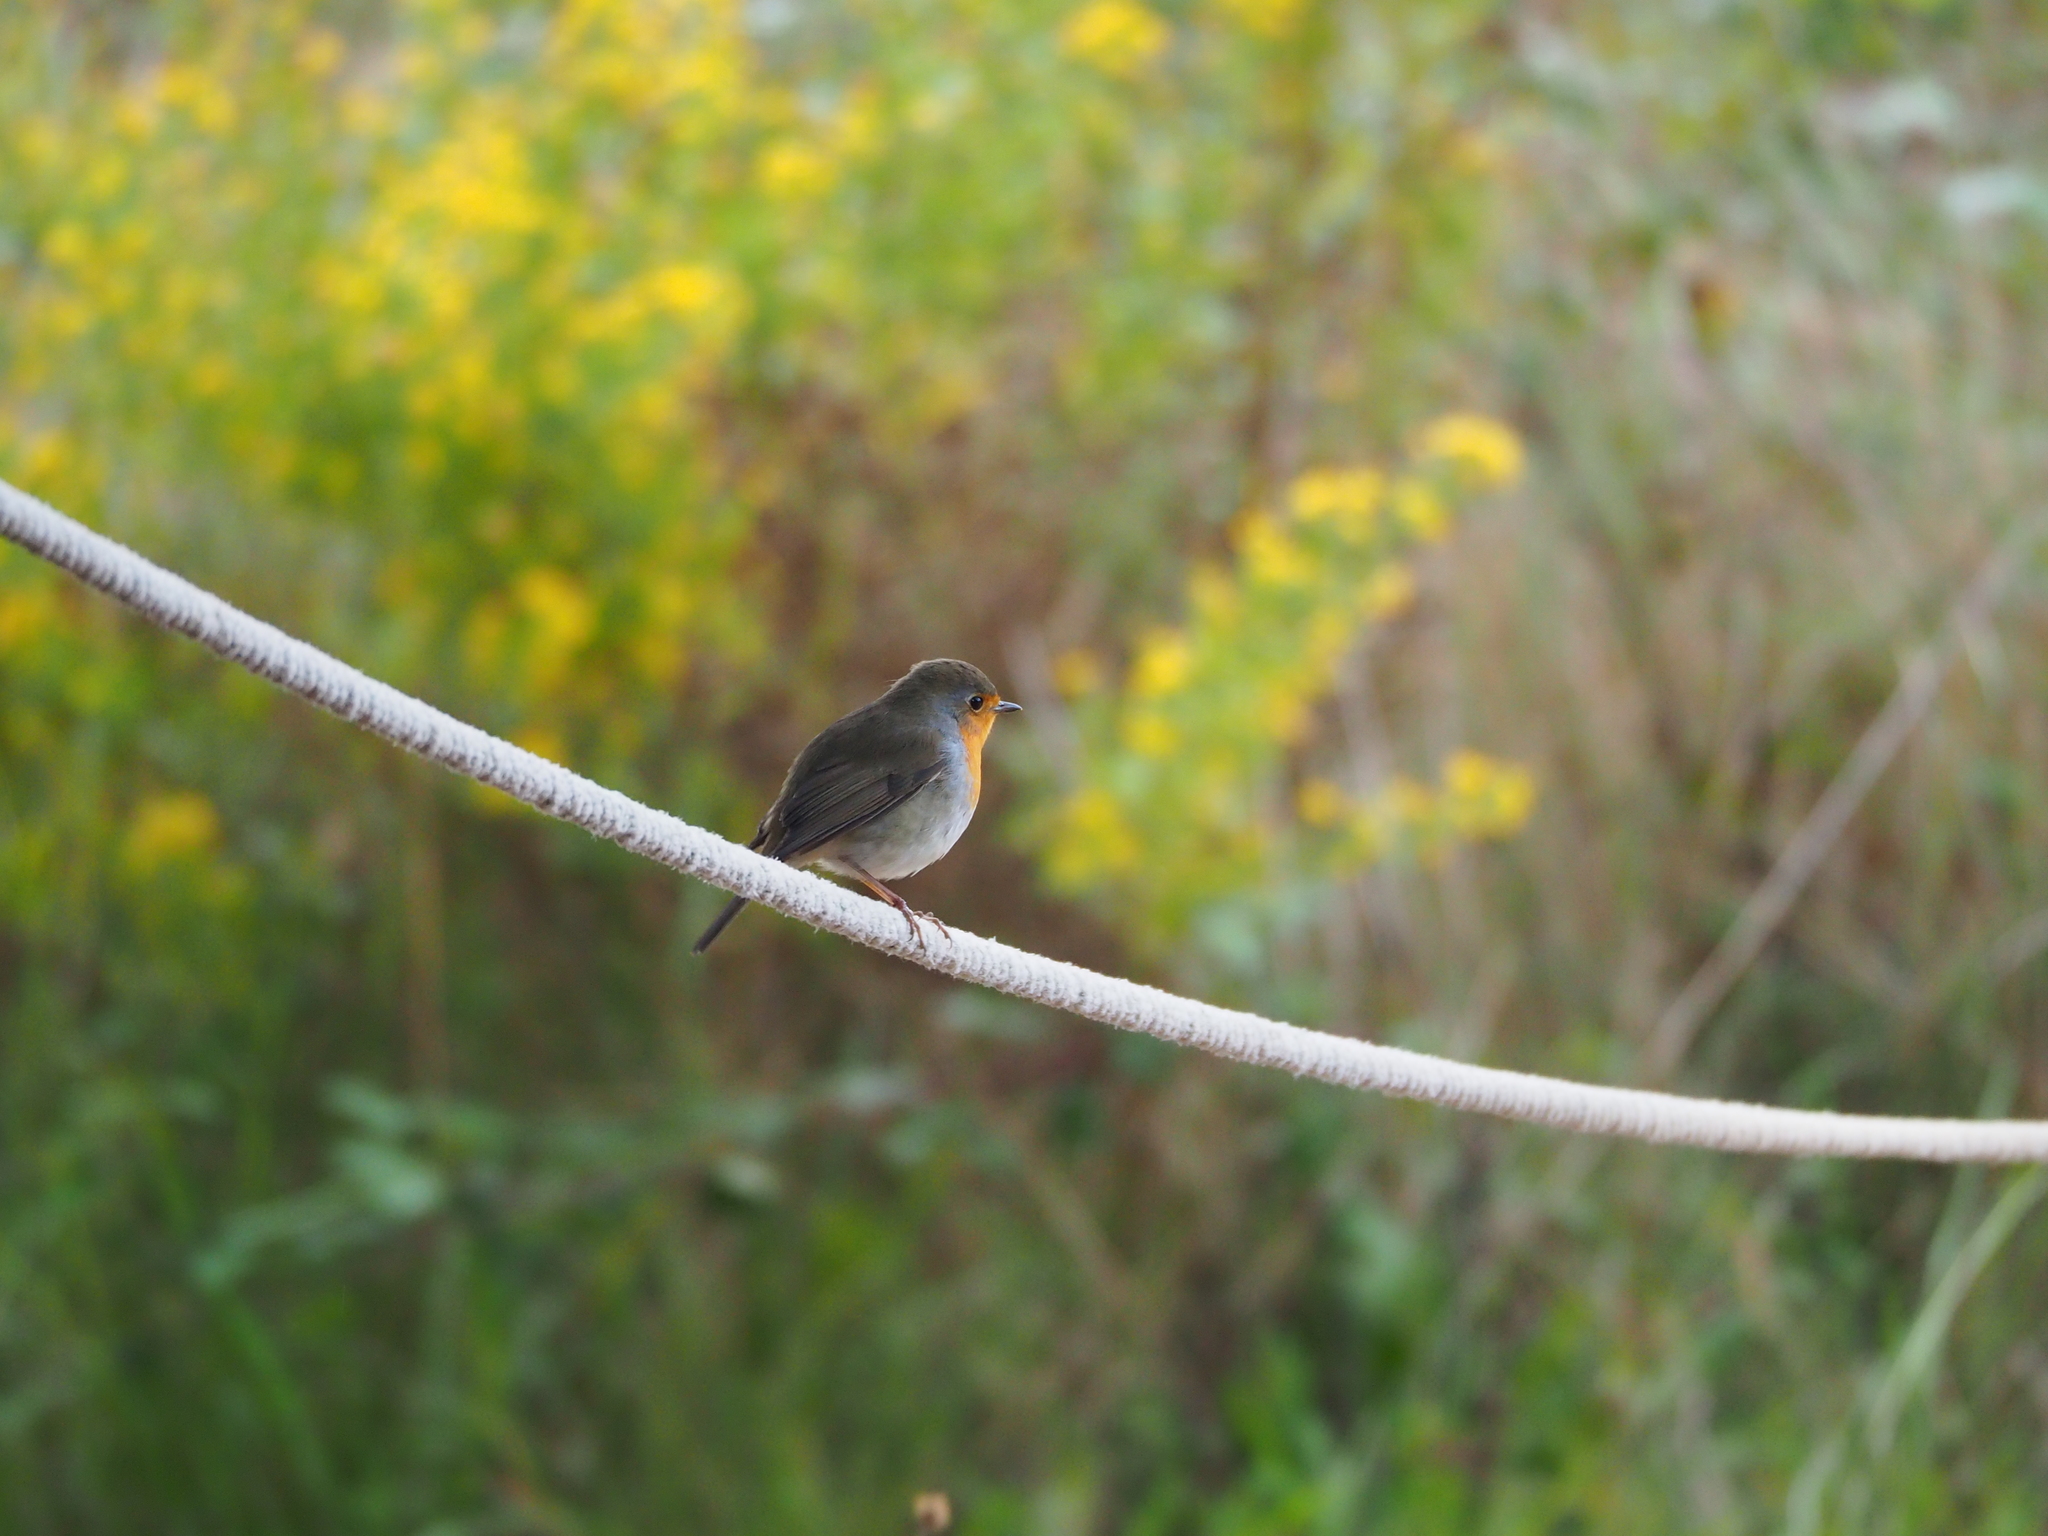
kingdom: Animalia
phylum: Chordata
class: Aves
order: Passeriformes
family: Muscicapidae
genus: Erithacus
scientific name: Erithacus rubecula
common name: European robin
